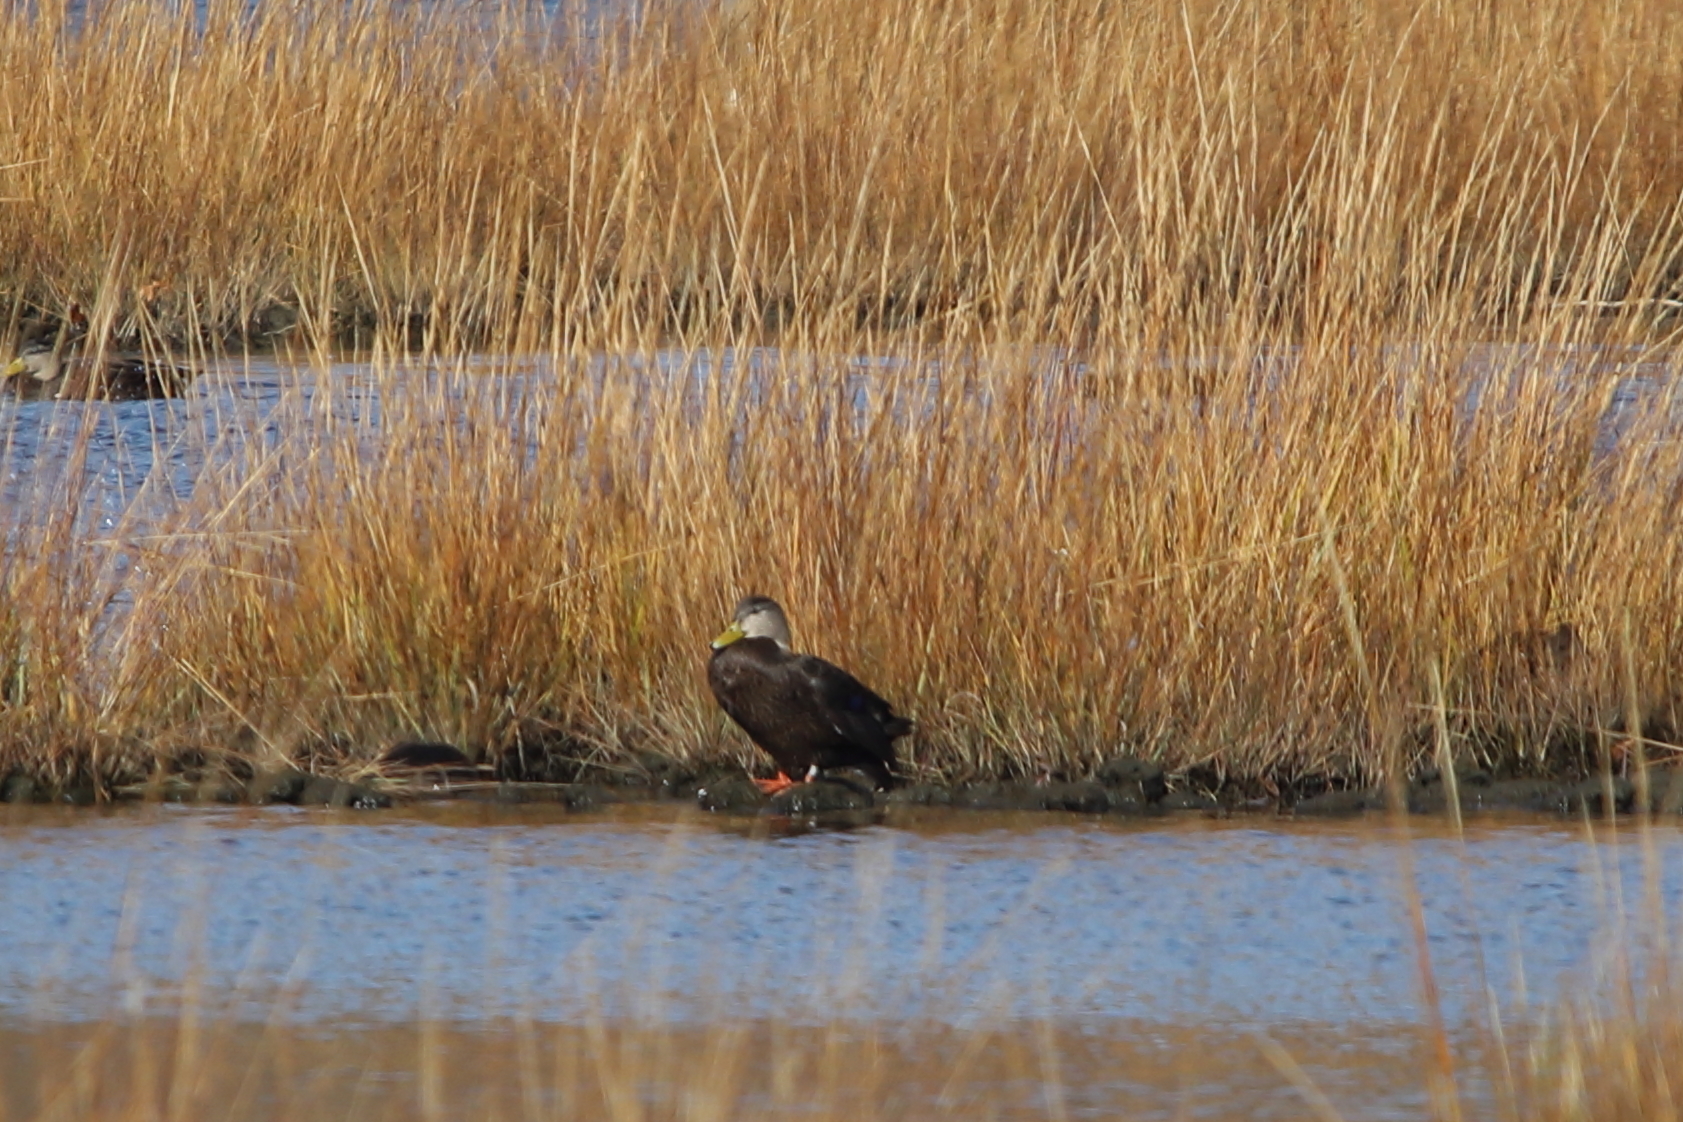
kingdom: Animalia
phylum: Chordata
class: Aves
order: Anseriformes
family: Anatidae
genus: Anas
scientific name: Anas rubripes
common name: American black duck
